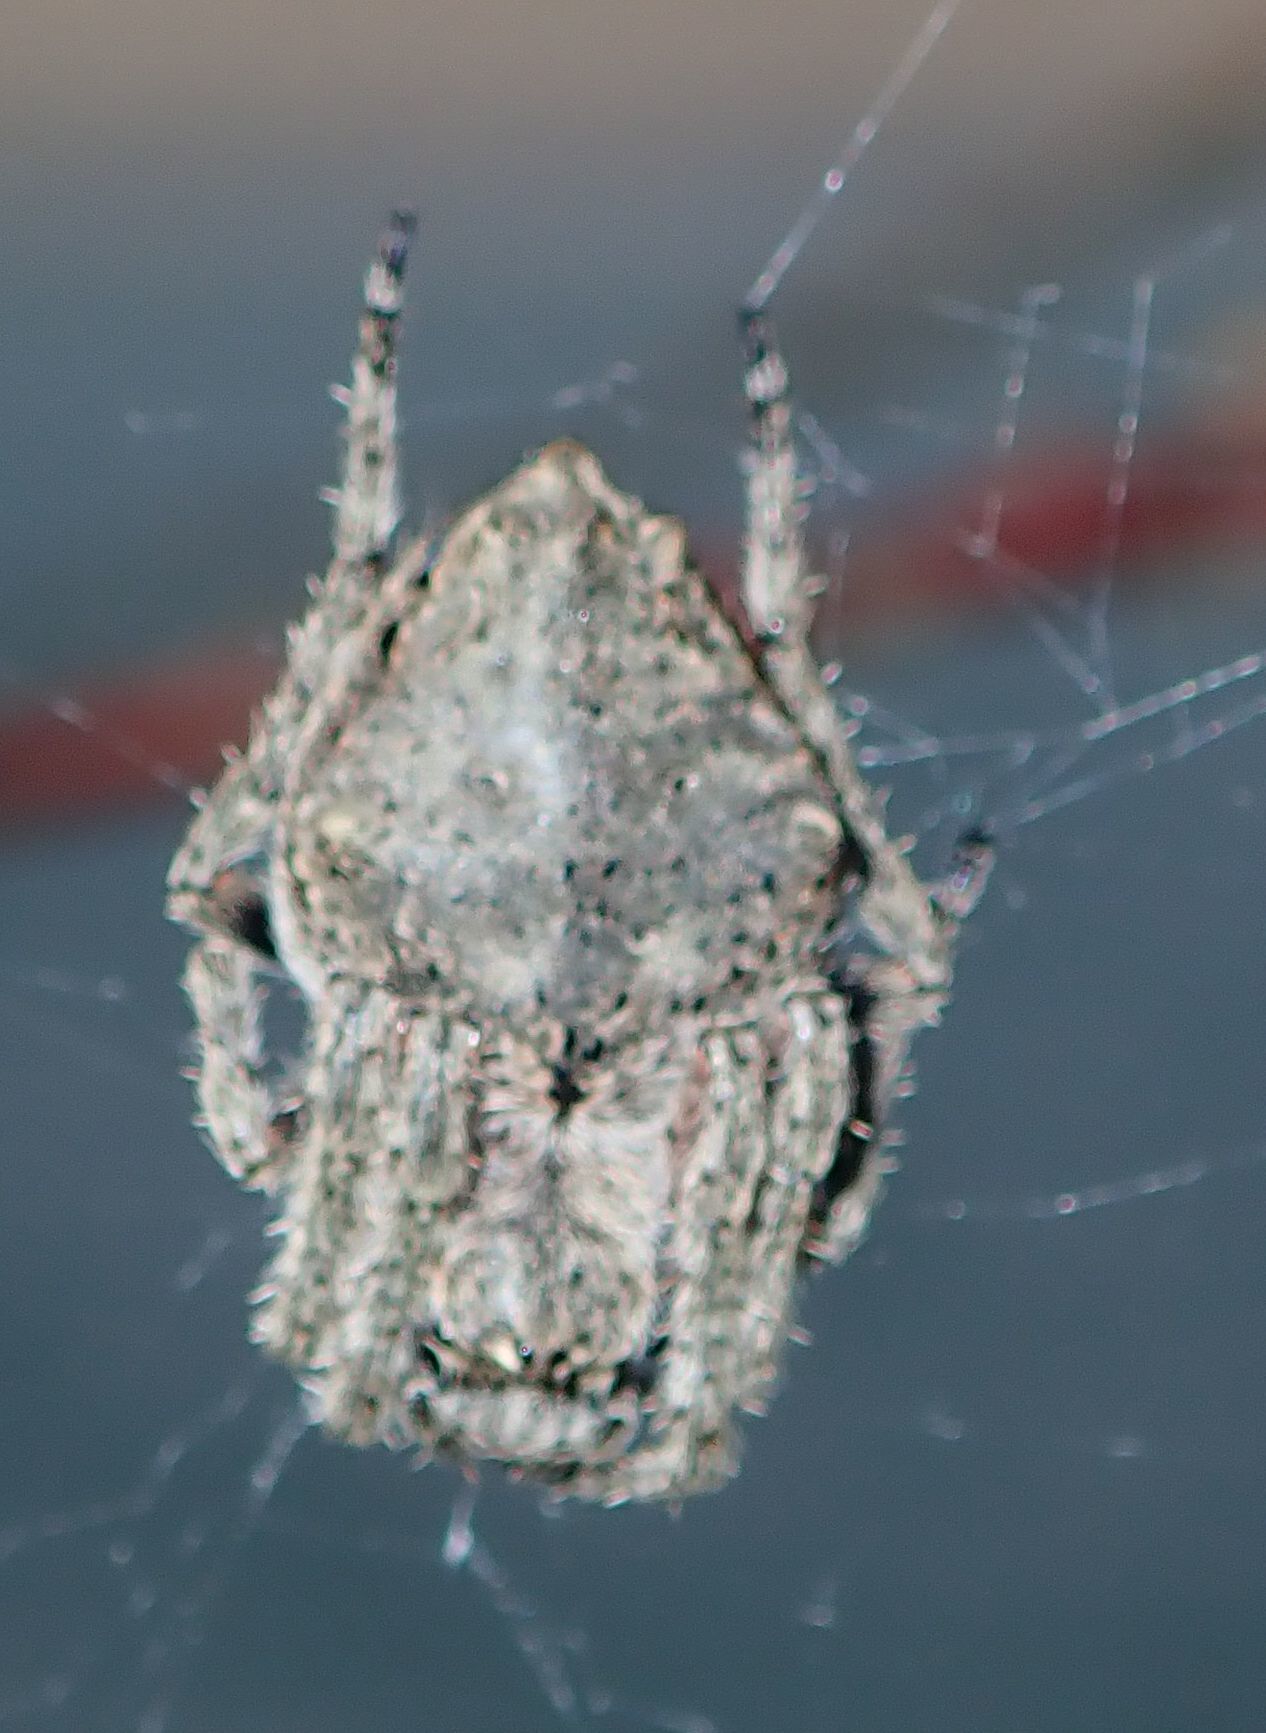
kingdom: Animalia
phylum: Arthropoda
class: Arachnida
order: Araneae
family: Araneidae
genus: Eriophora
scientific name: Eriophora pustulosa
